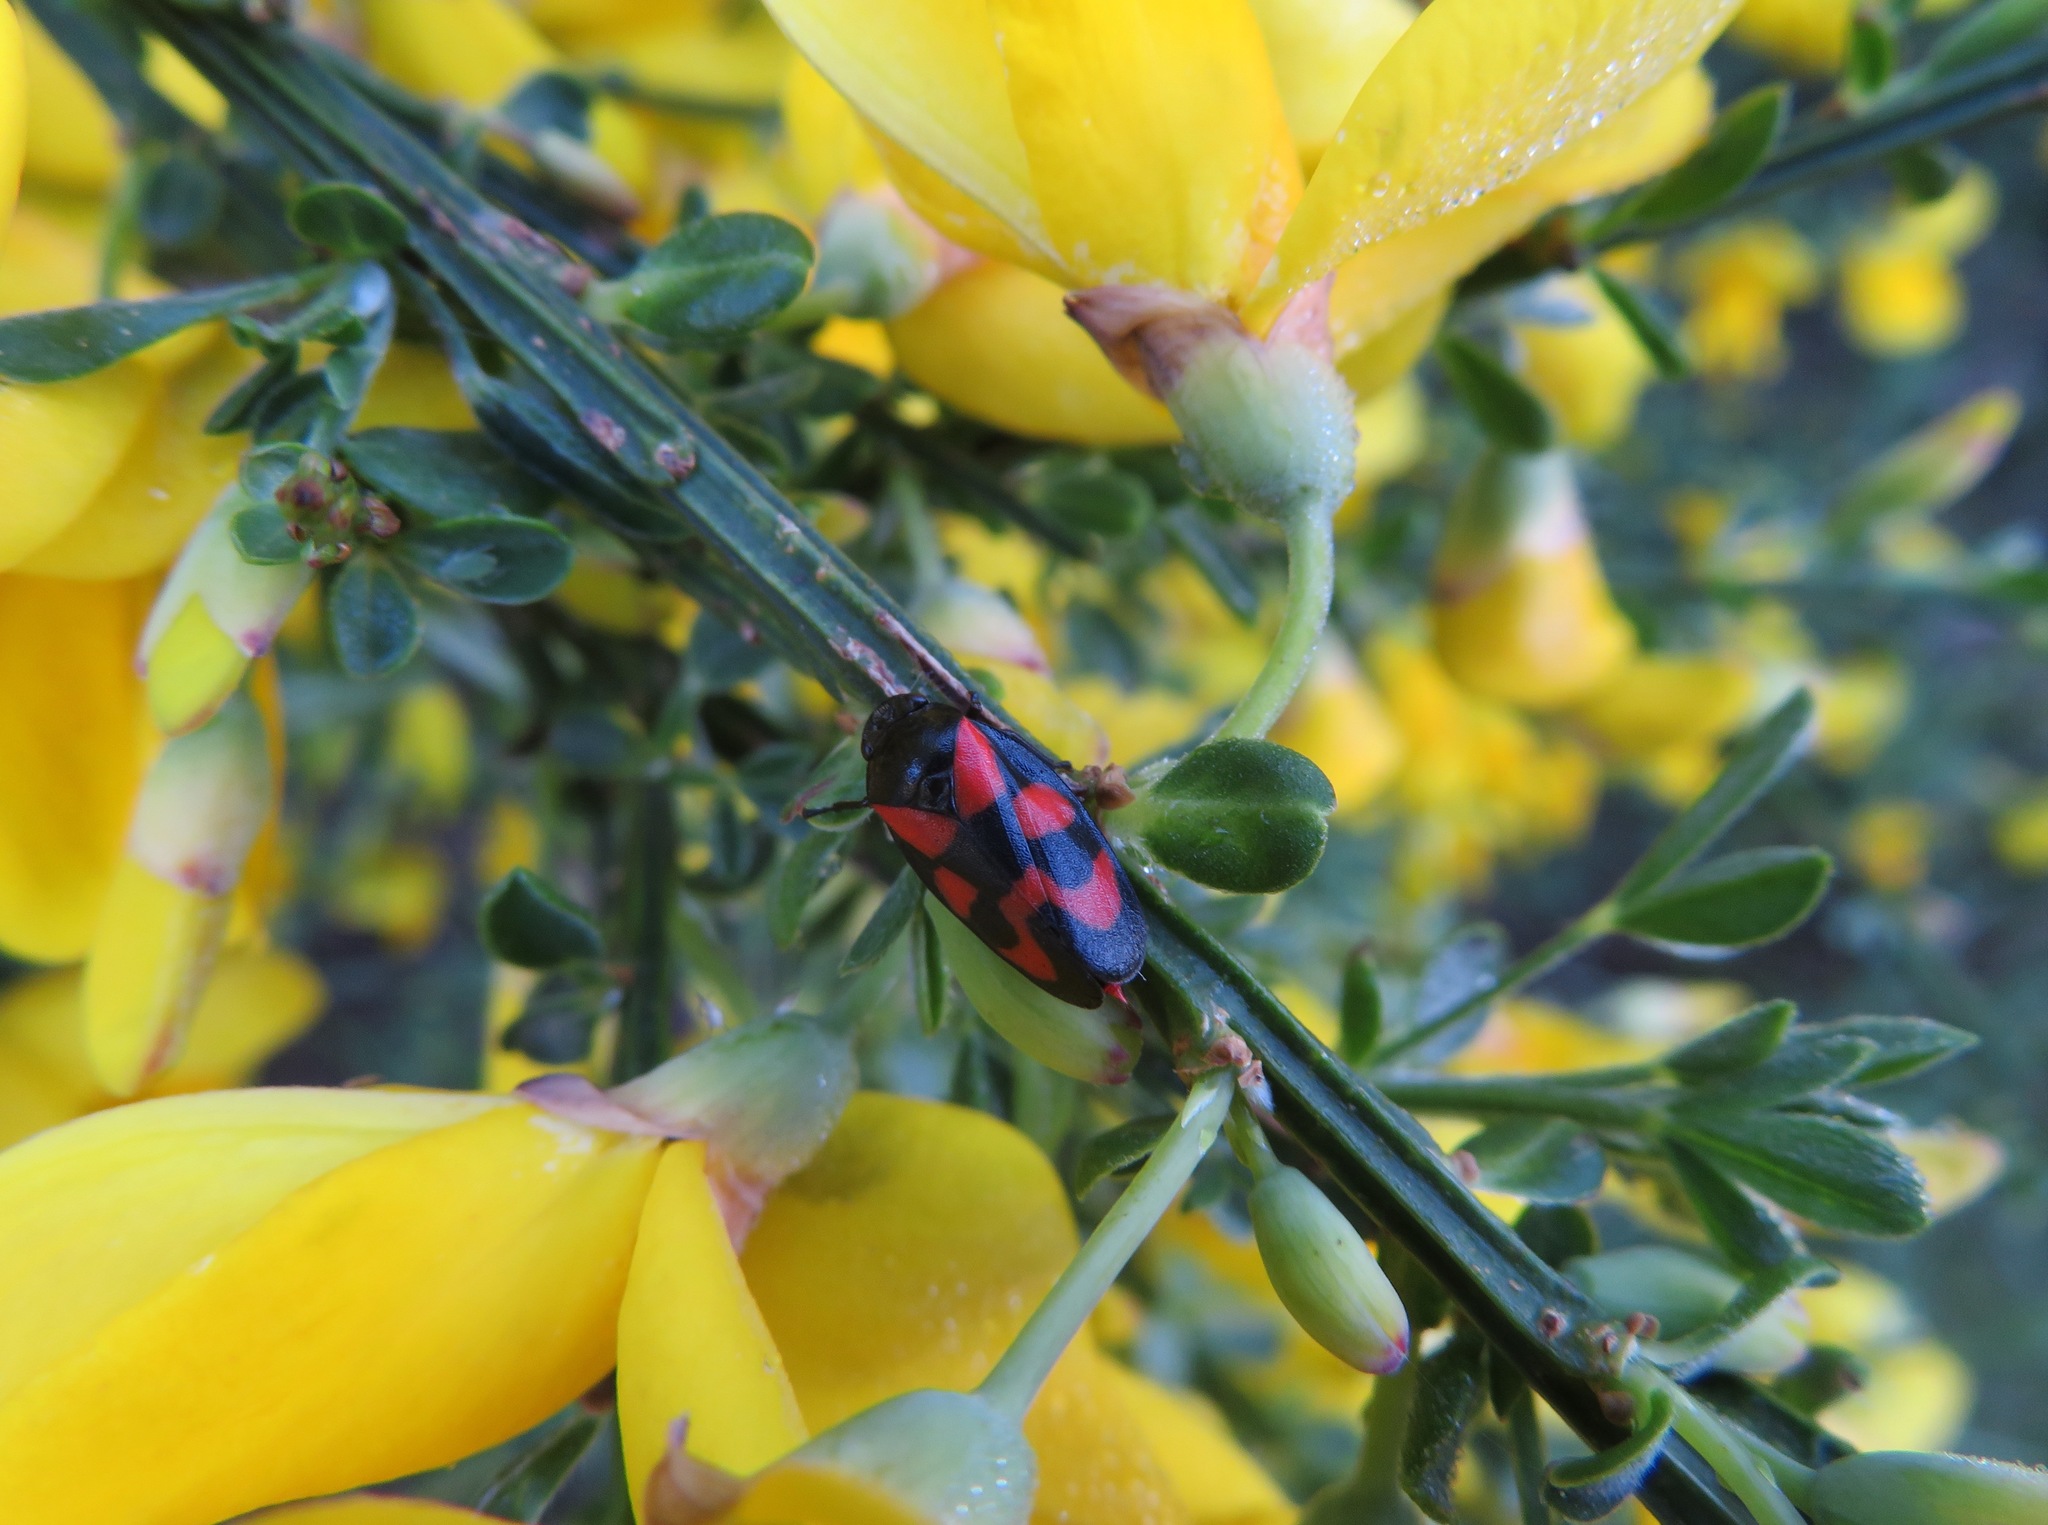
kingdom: Animalia
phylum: Arthropoda
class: Insecta
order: Hemiptera
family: Cercopidae
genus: Cercopis
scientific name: Cercopis vulnerata
